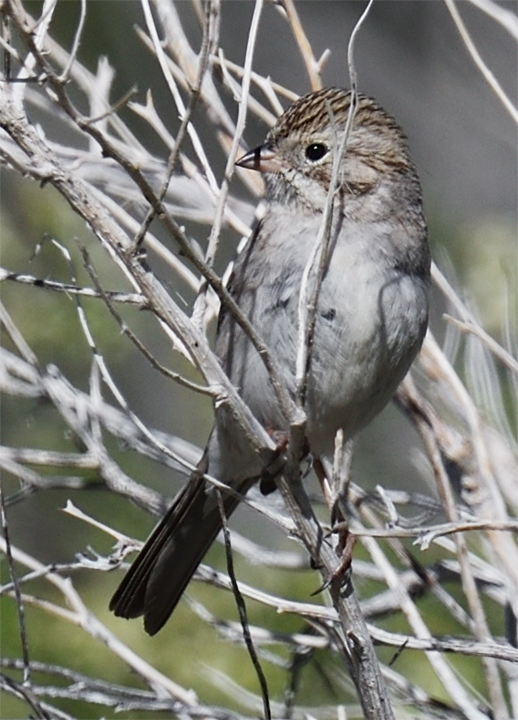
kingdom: Animalia
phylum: Chordata
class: Aves
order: Passeriformes
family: Passerellidae
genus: Spizella
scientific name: Spizella breweri
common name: Brewer's sparrow
